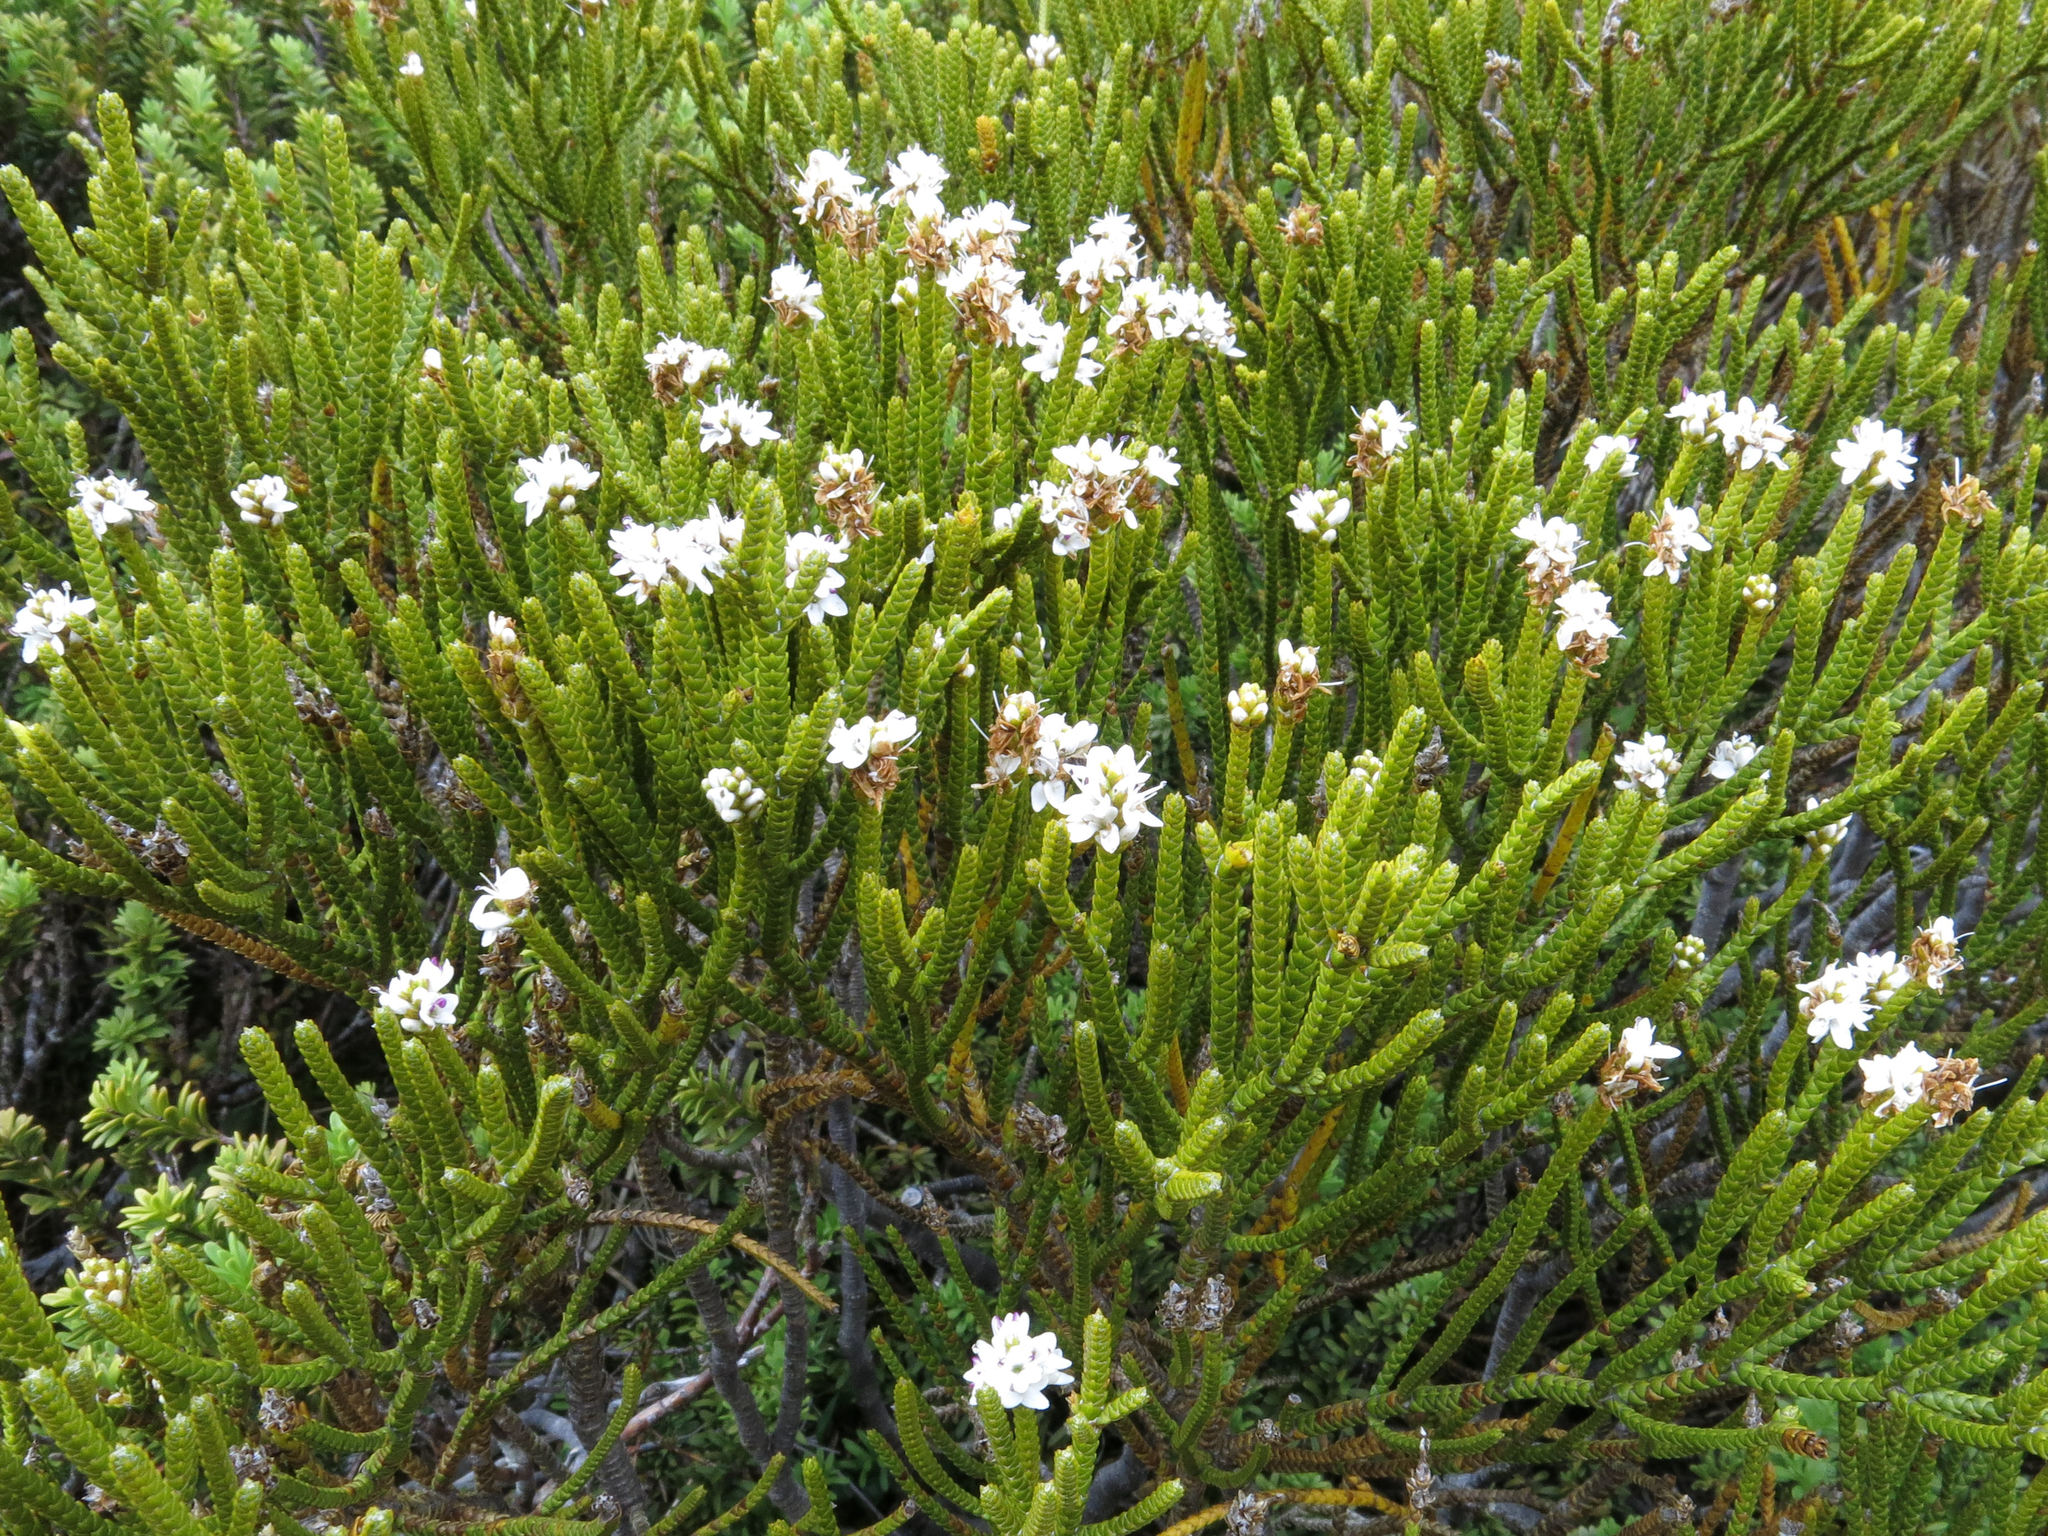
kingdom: Plantae
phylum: Tracheophyta
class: Magnoliopsida
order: Lamiales
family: Plantaginaceae
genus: Veronica
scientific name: Veronica lycopodioides
